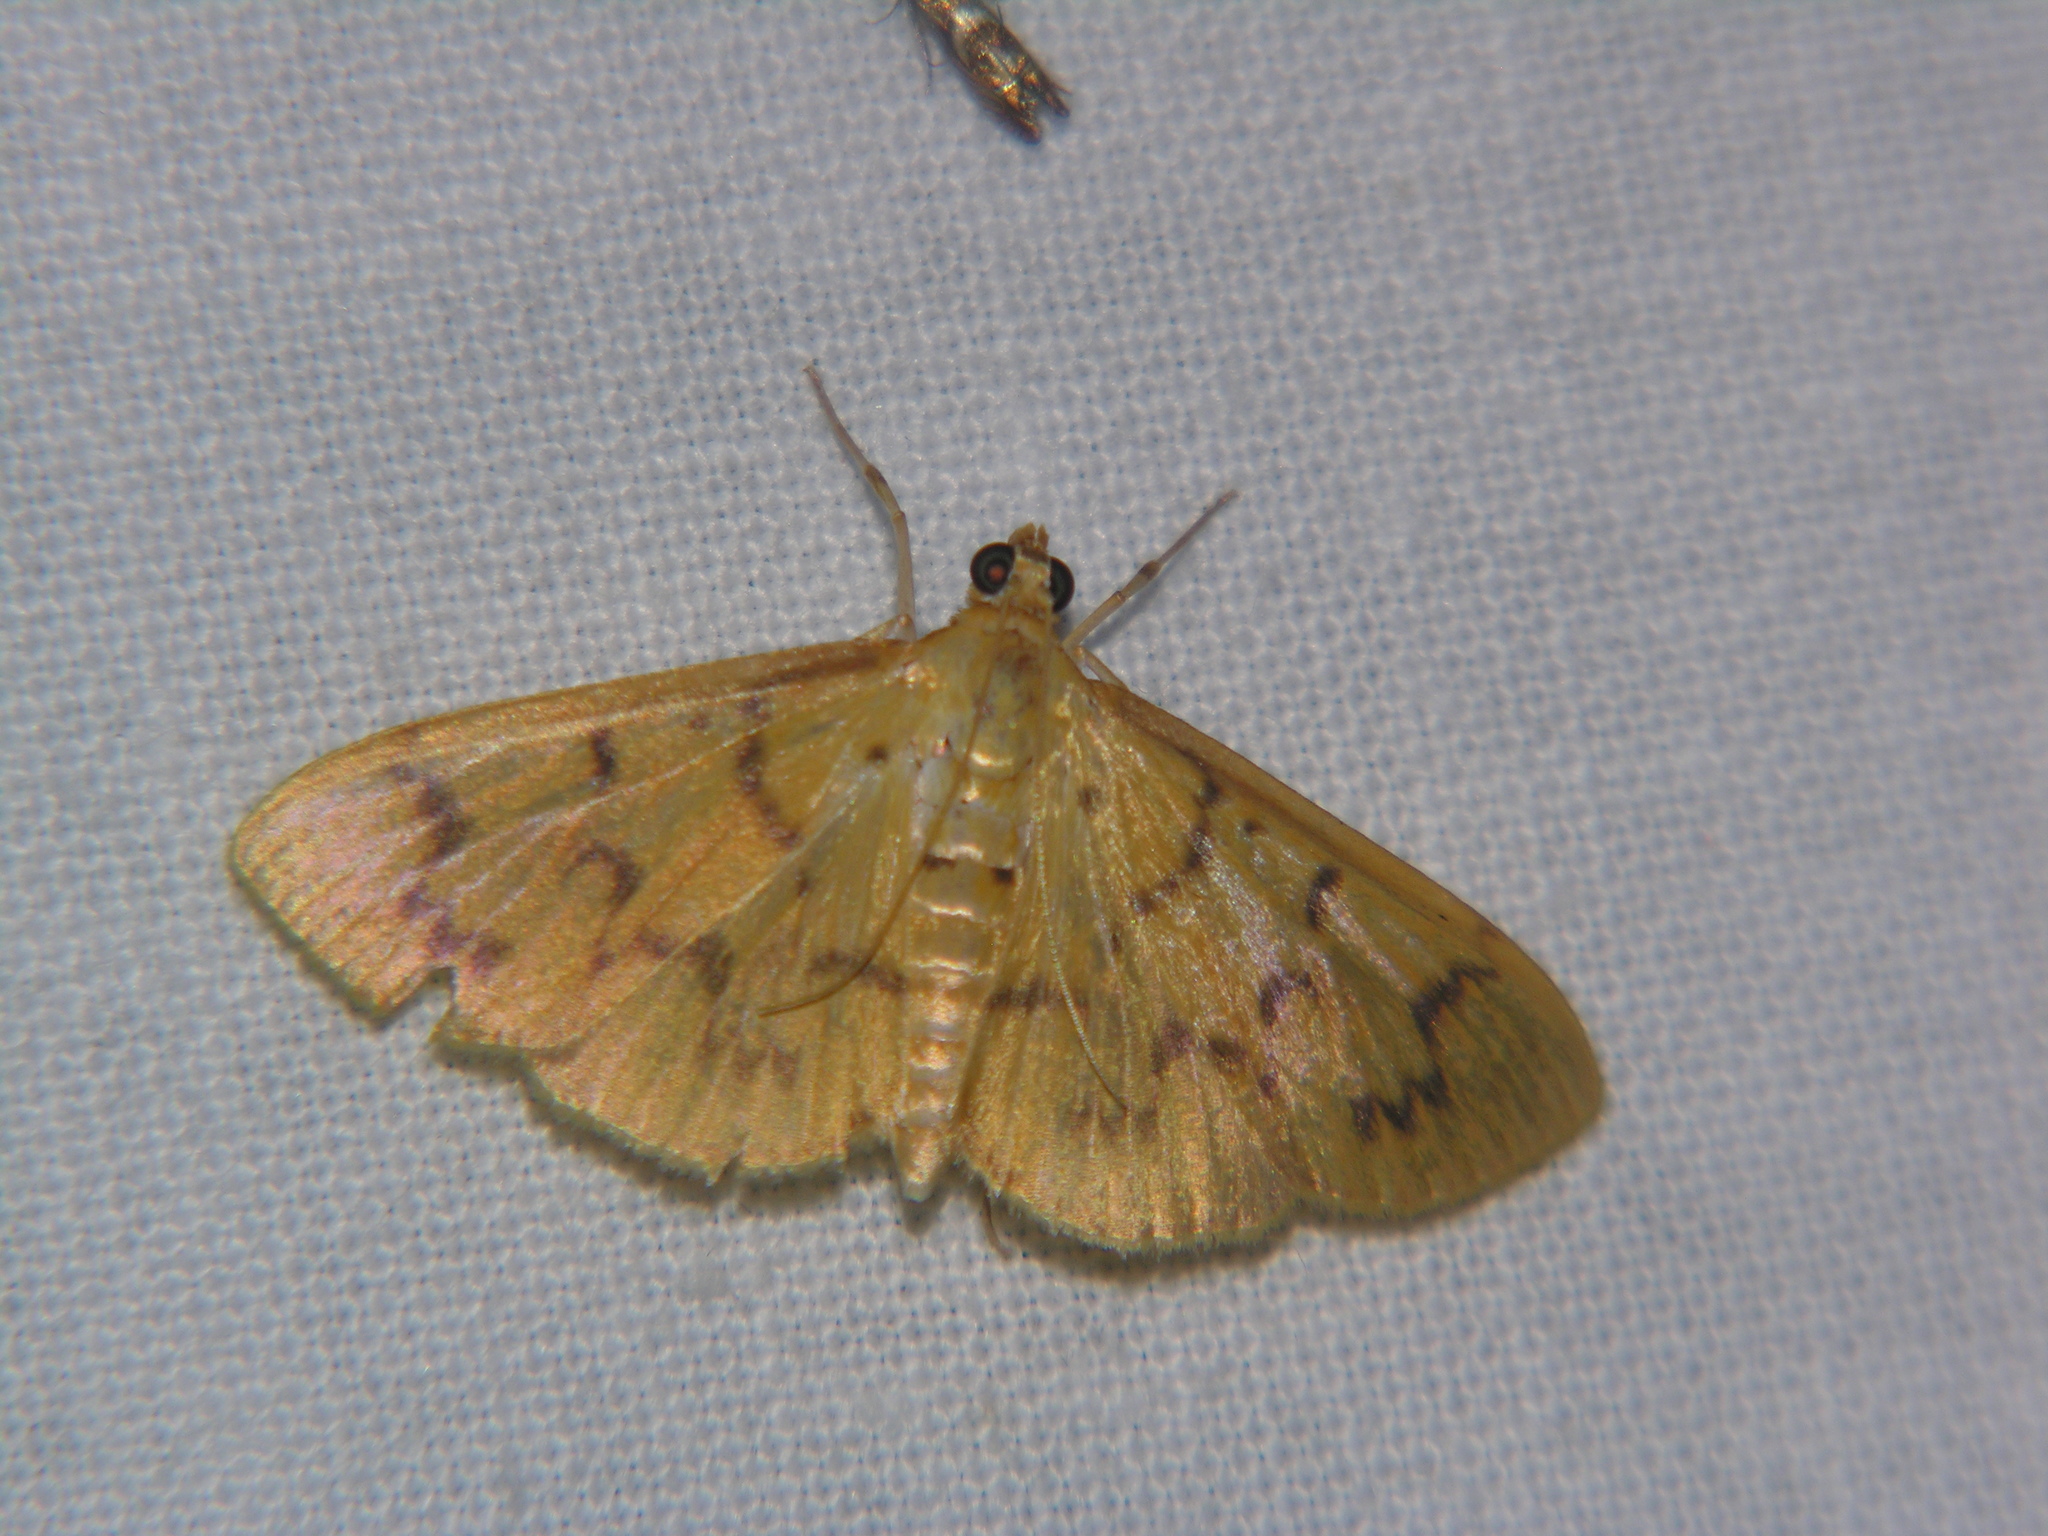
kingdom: Animalia
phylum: Arthropoda
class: Insecta
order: Lepidoptera
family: Crambidae
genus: Patania
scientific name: Patania
